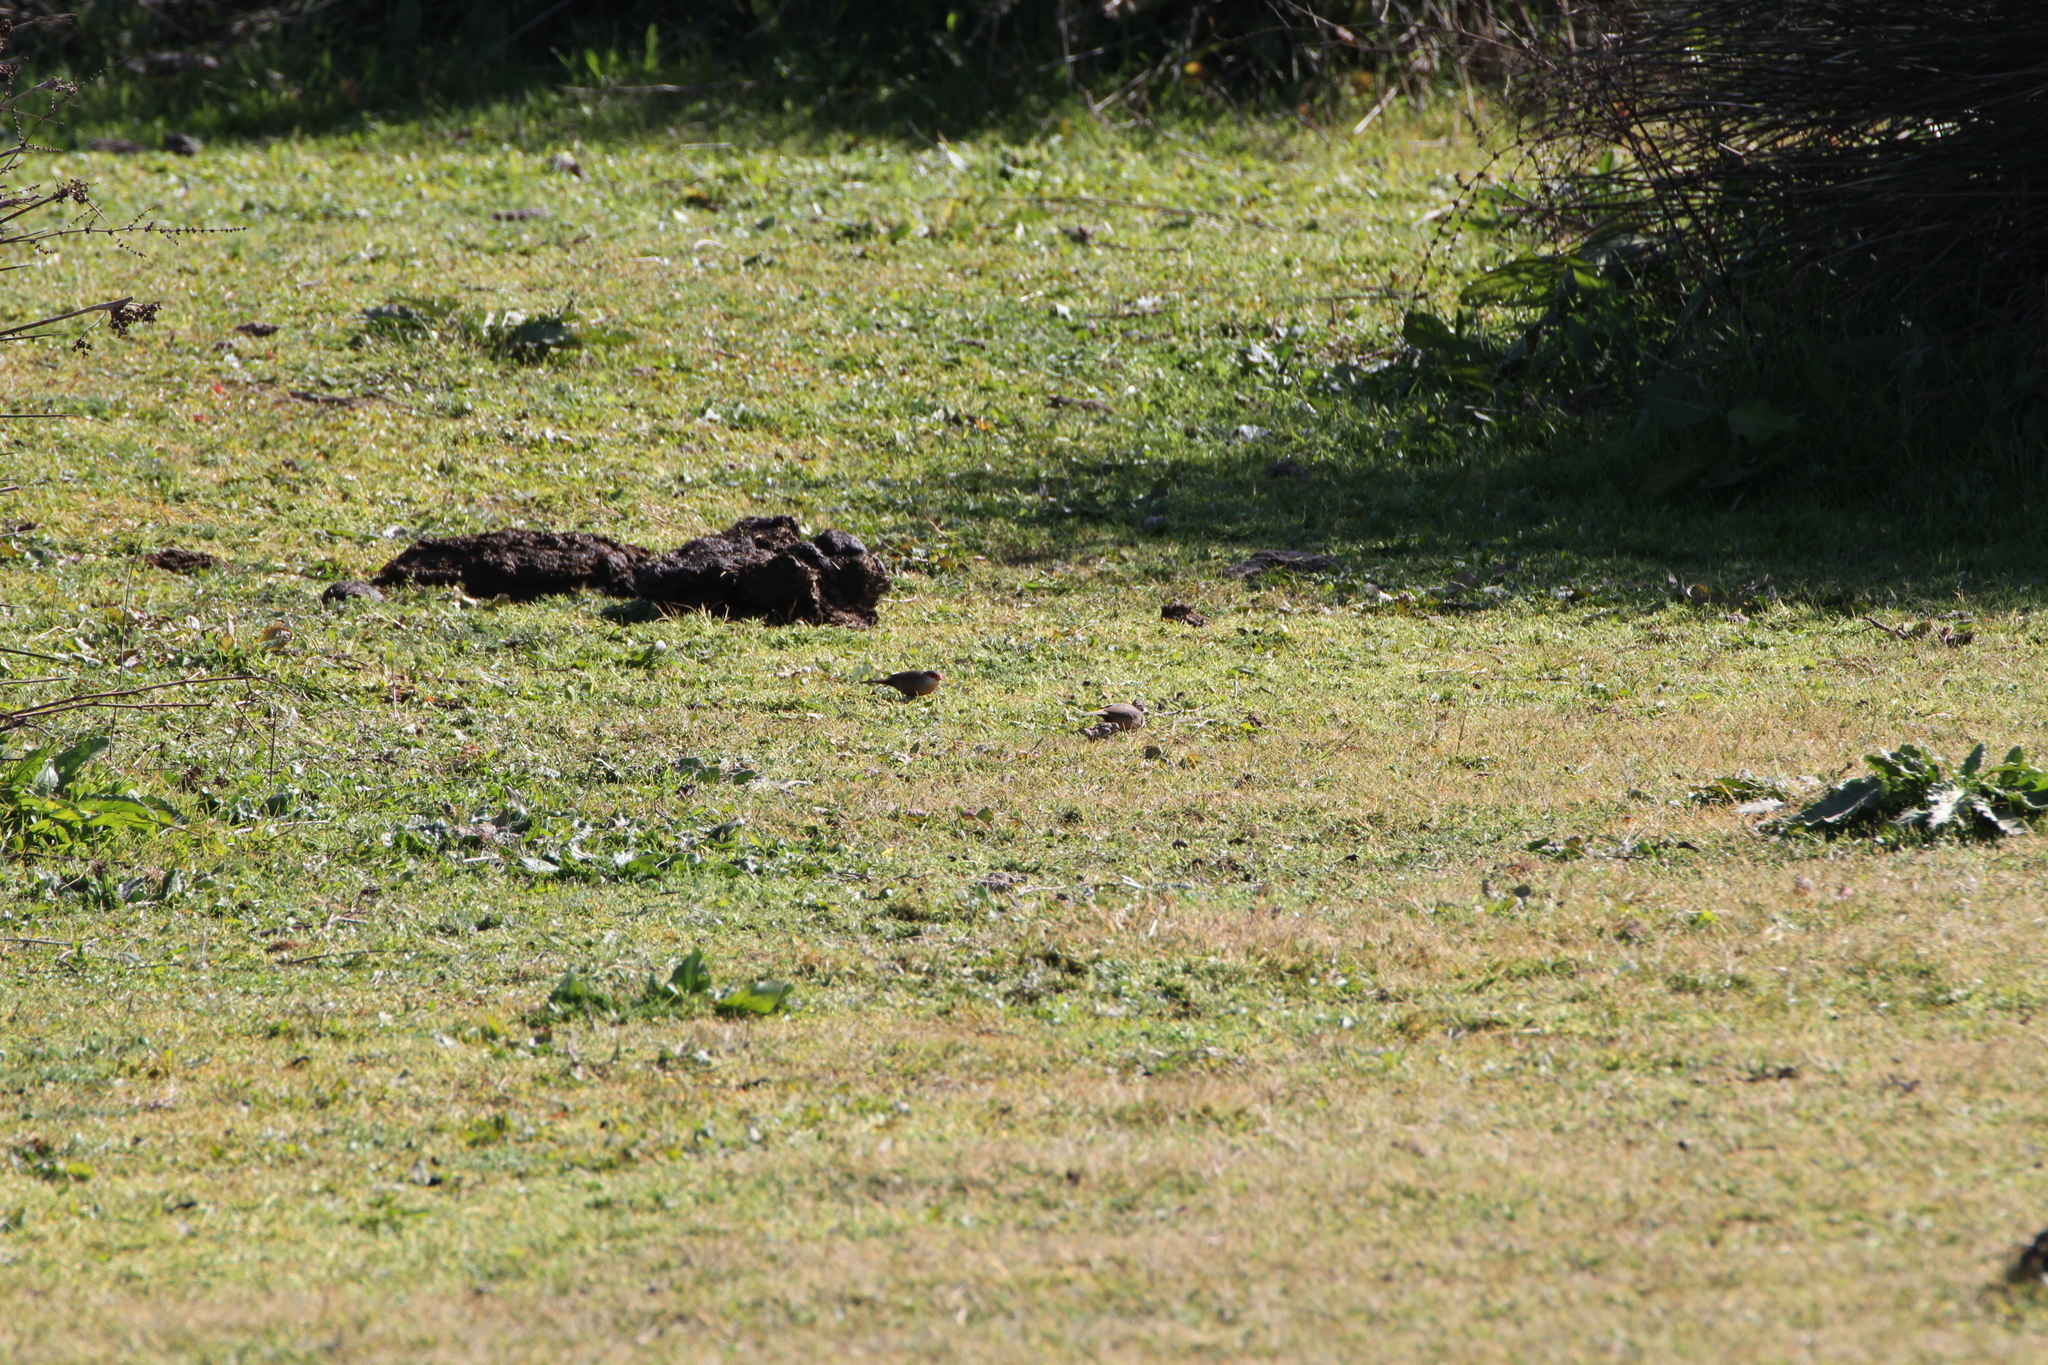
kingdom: Animalia
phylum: Chordata
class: Aves
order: Passeriformes
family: Estrildidae
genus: Estrilda
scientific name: Estrilda astrild
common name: Common waxbill
